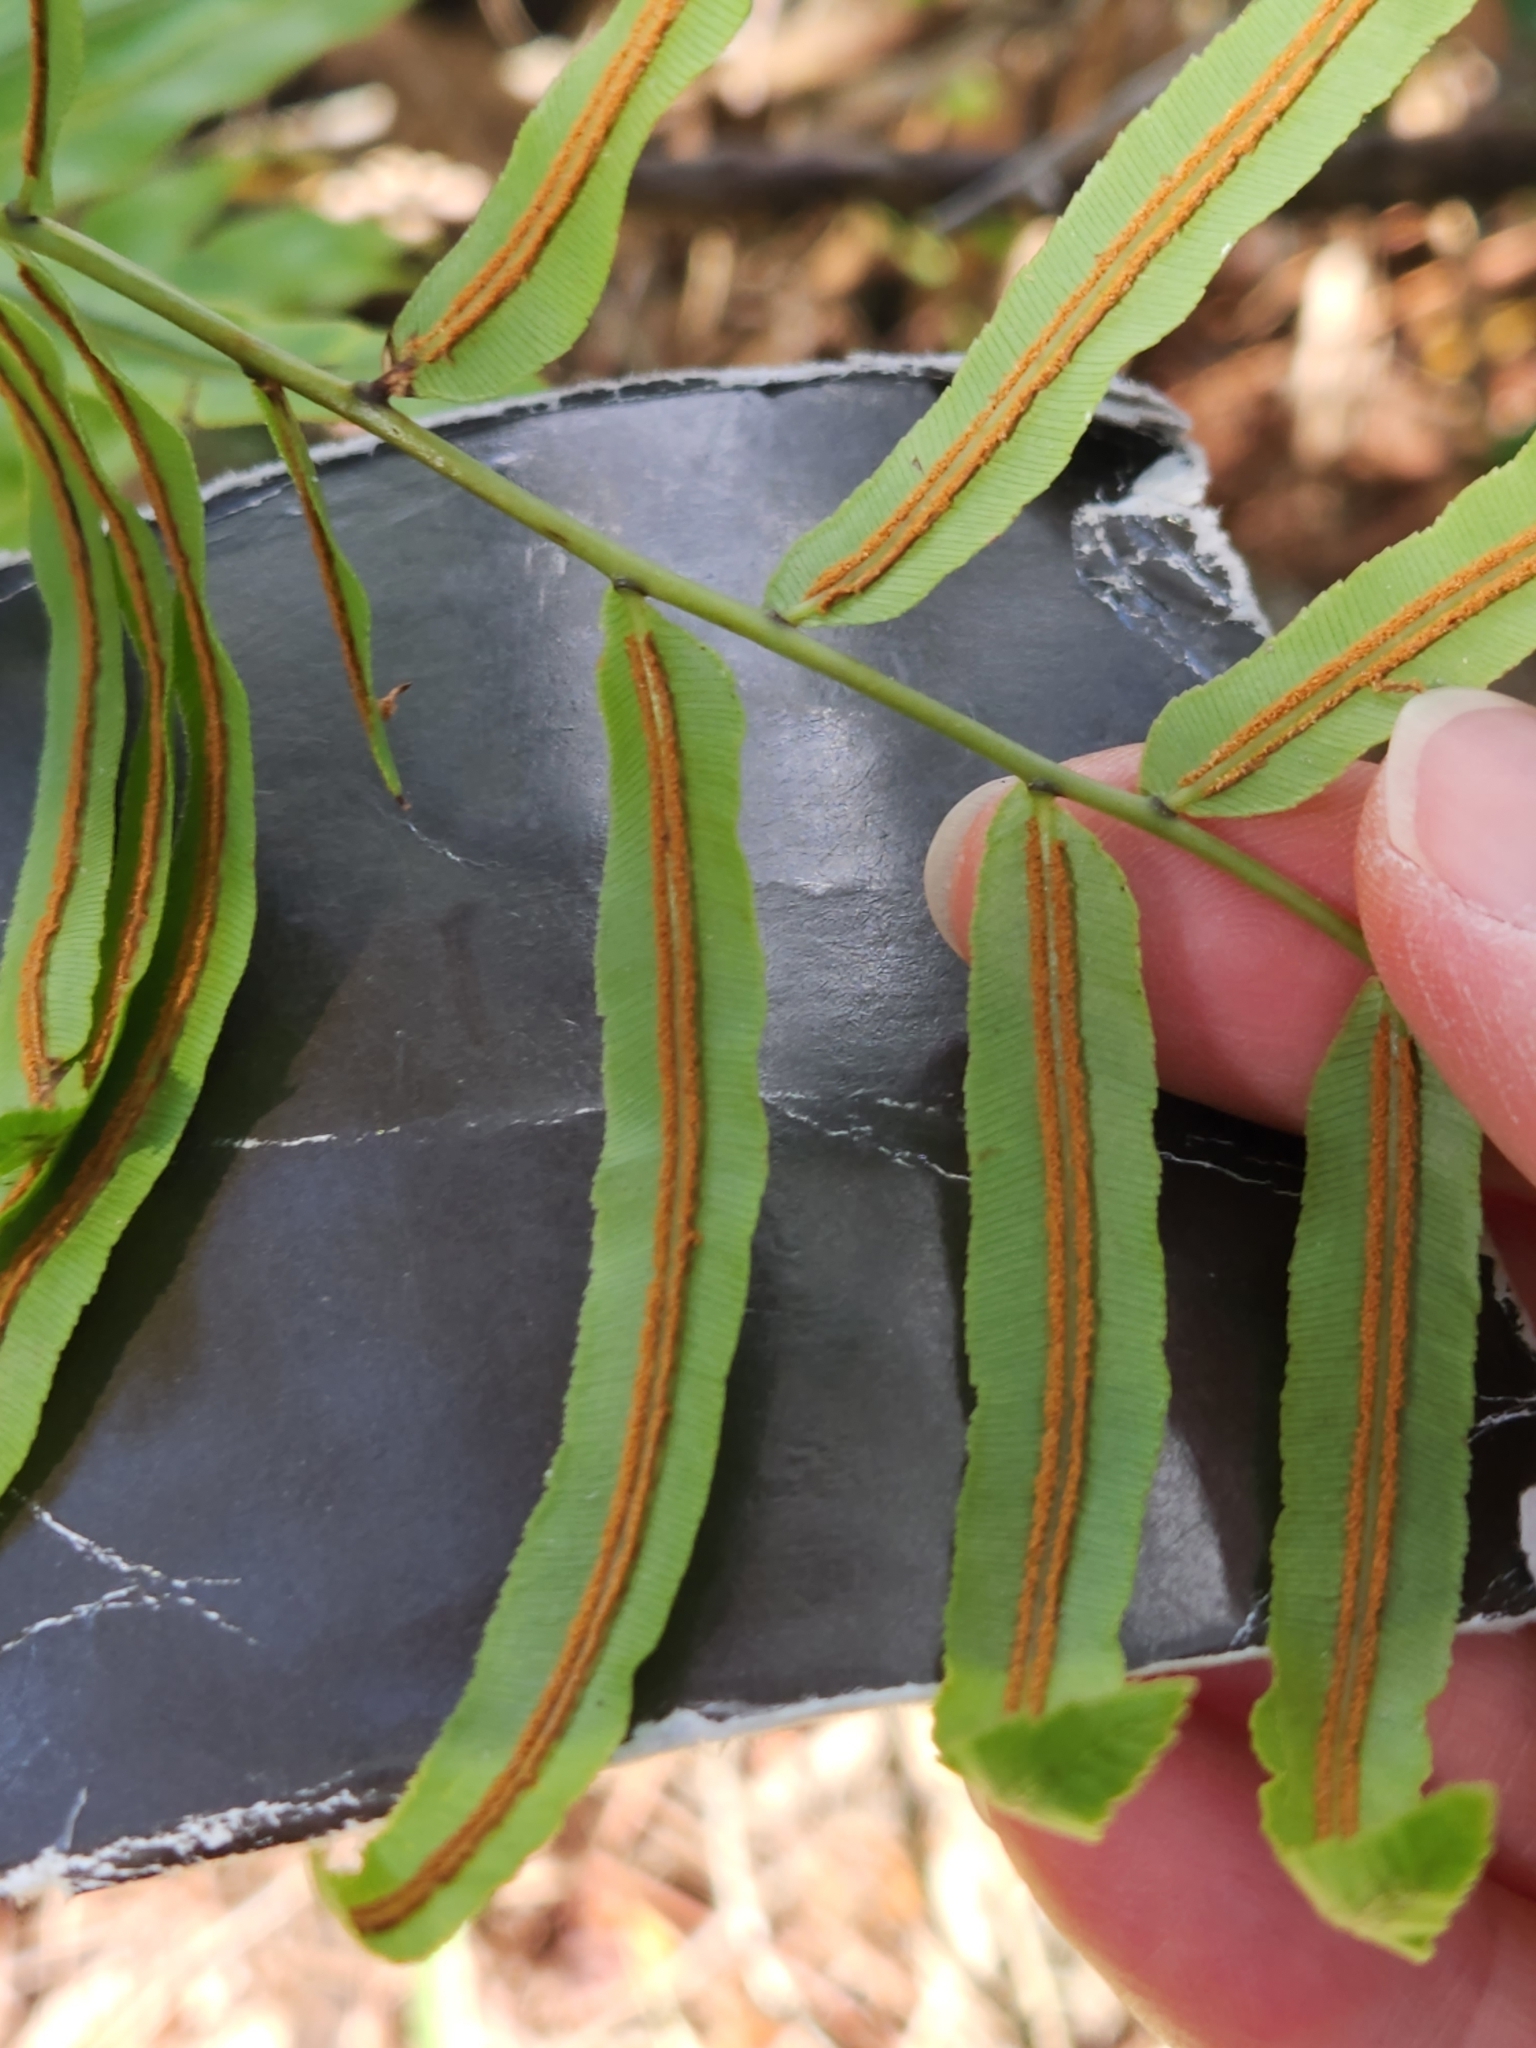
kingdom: Plantae
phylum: Tracheophyta
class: Polypodiopsida
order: Polypodiales
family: Blechnaceae
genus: Telmatoblechnum
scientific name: Telmatoblechnum serrulatum
